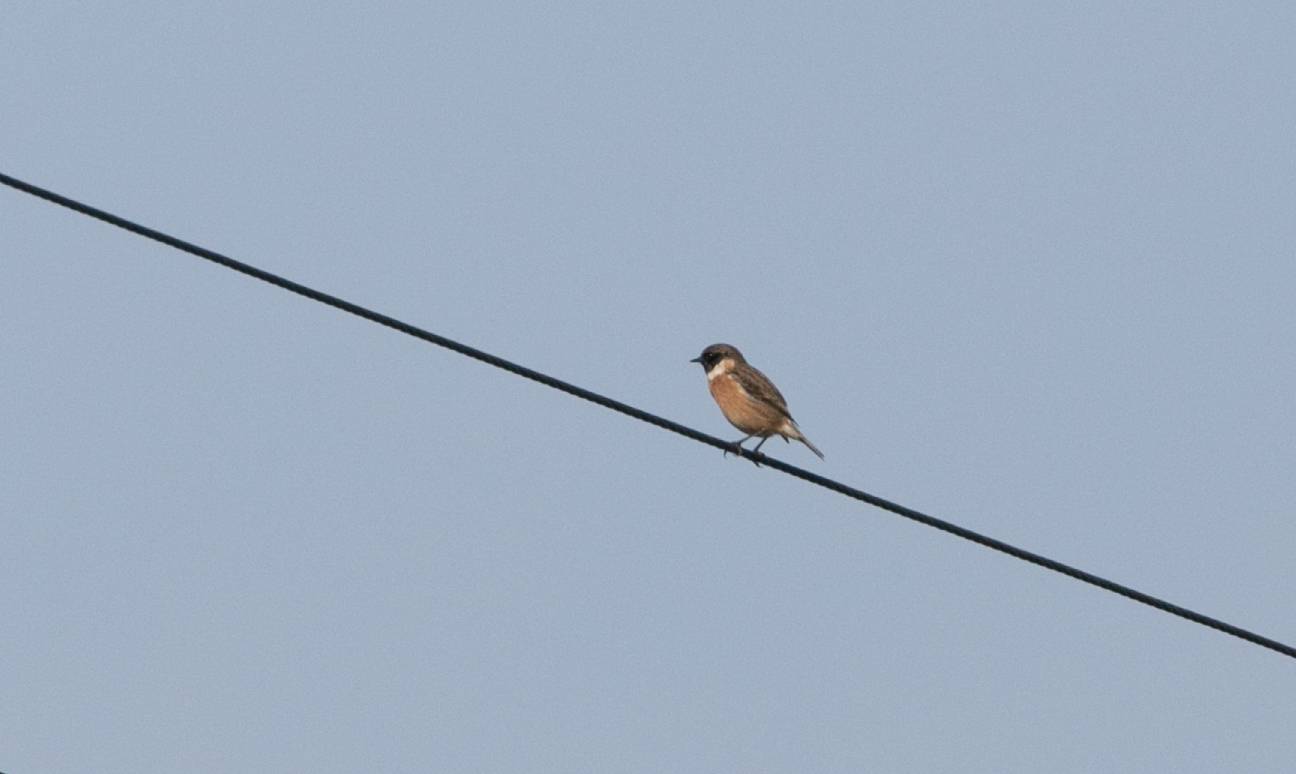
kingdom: Animalia
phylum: Chordata
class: Aves
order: Passeriformes
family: Muscicapidae
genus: Saxicola
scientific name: Saxicola rubicola
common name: European stonechat
